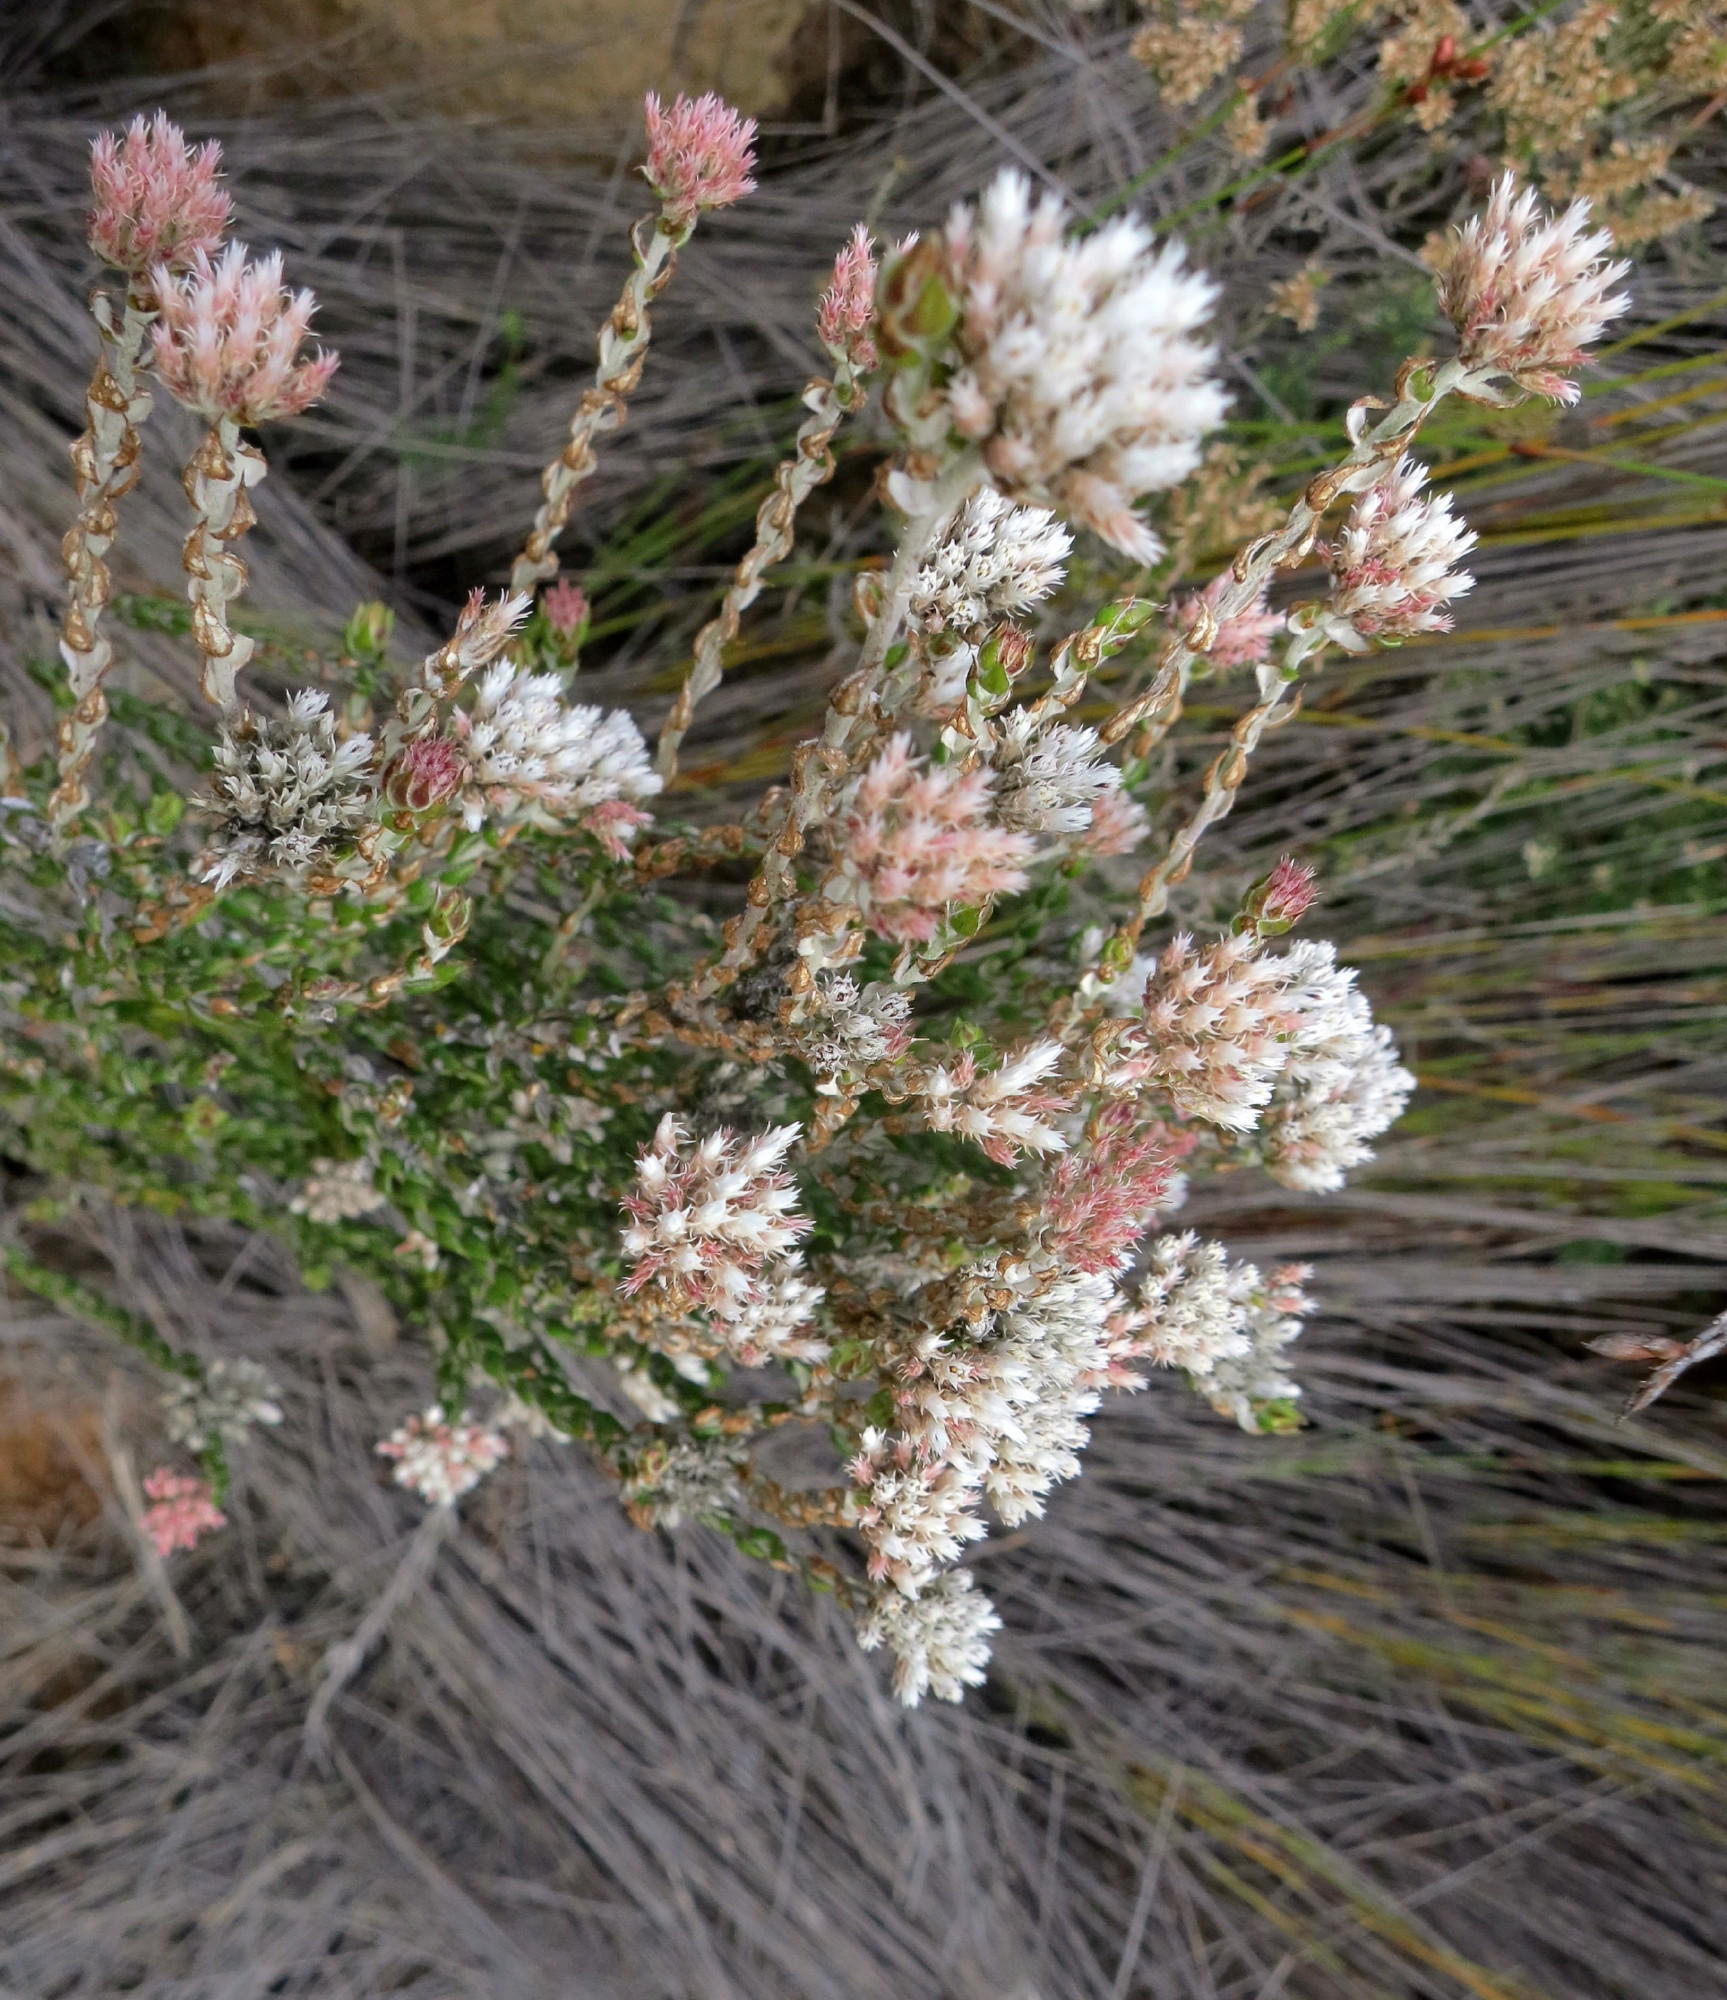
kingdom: Plantae
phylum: Tracheophyta
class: Magnoliopsida
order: Asterales
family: Asteraceae
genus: Metalasia
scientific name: Metalasia pulcherrima
